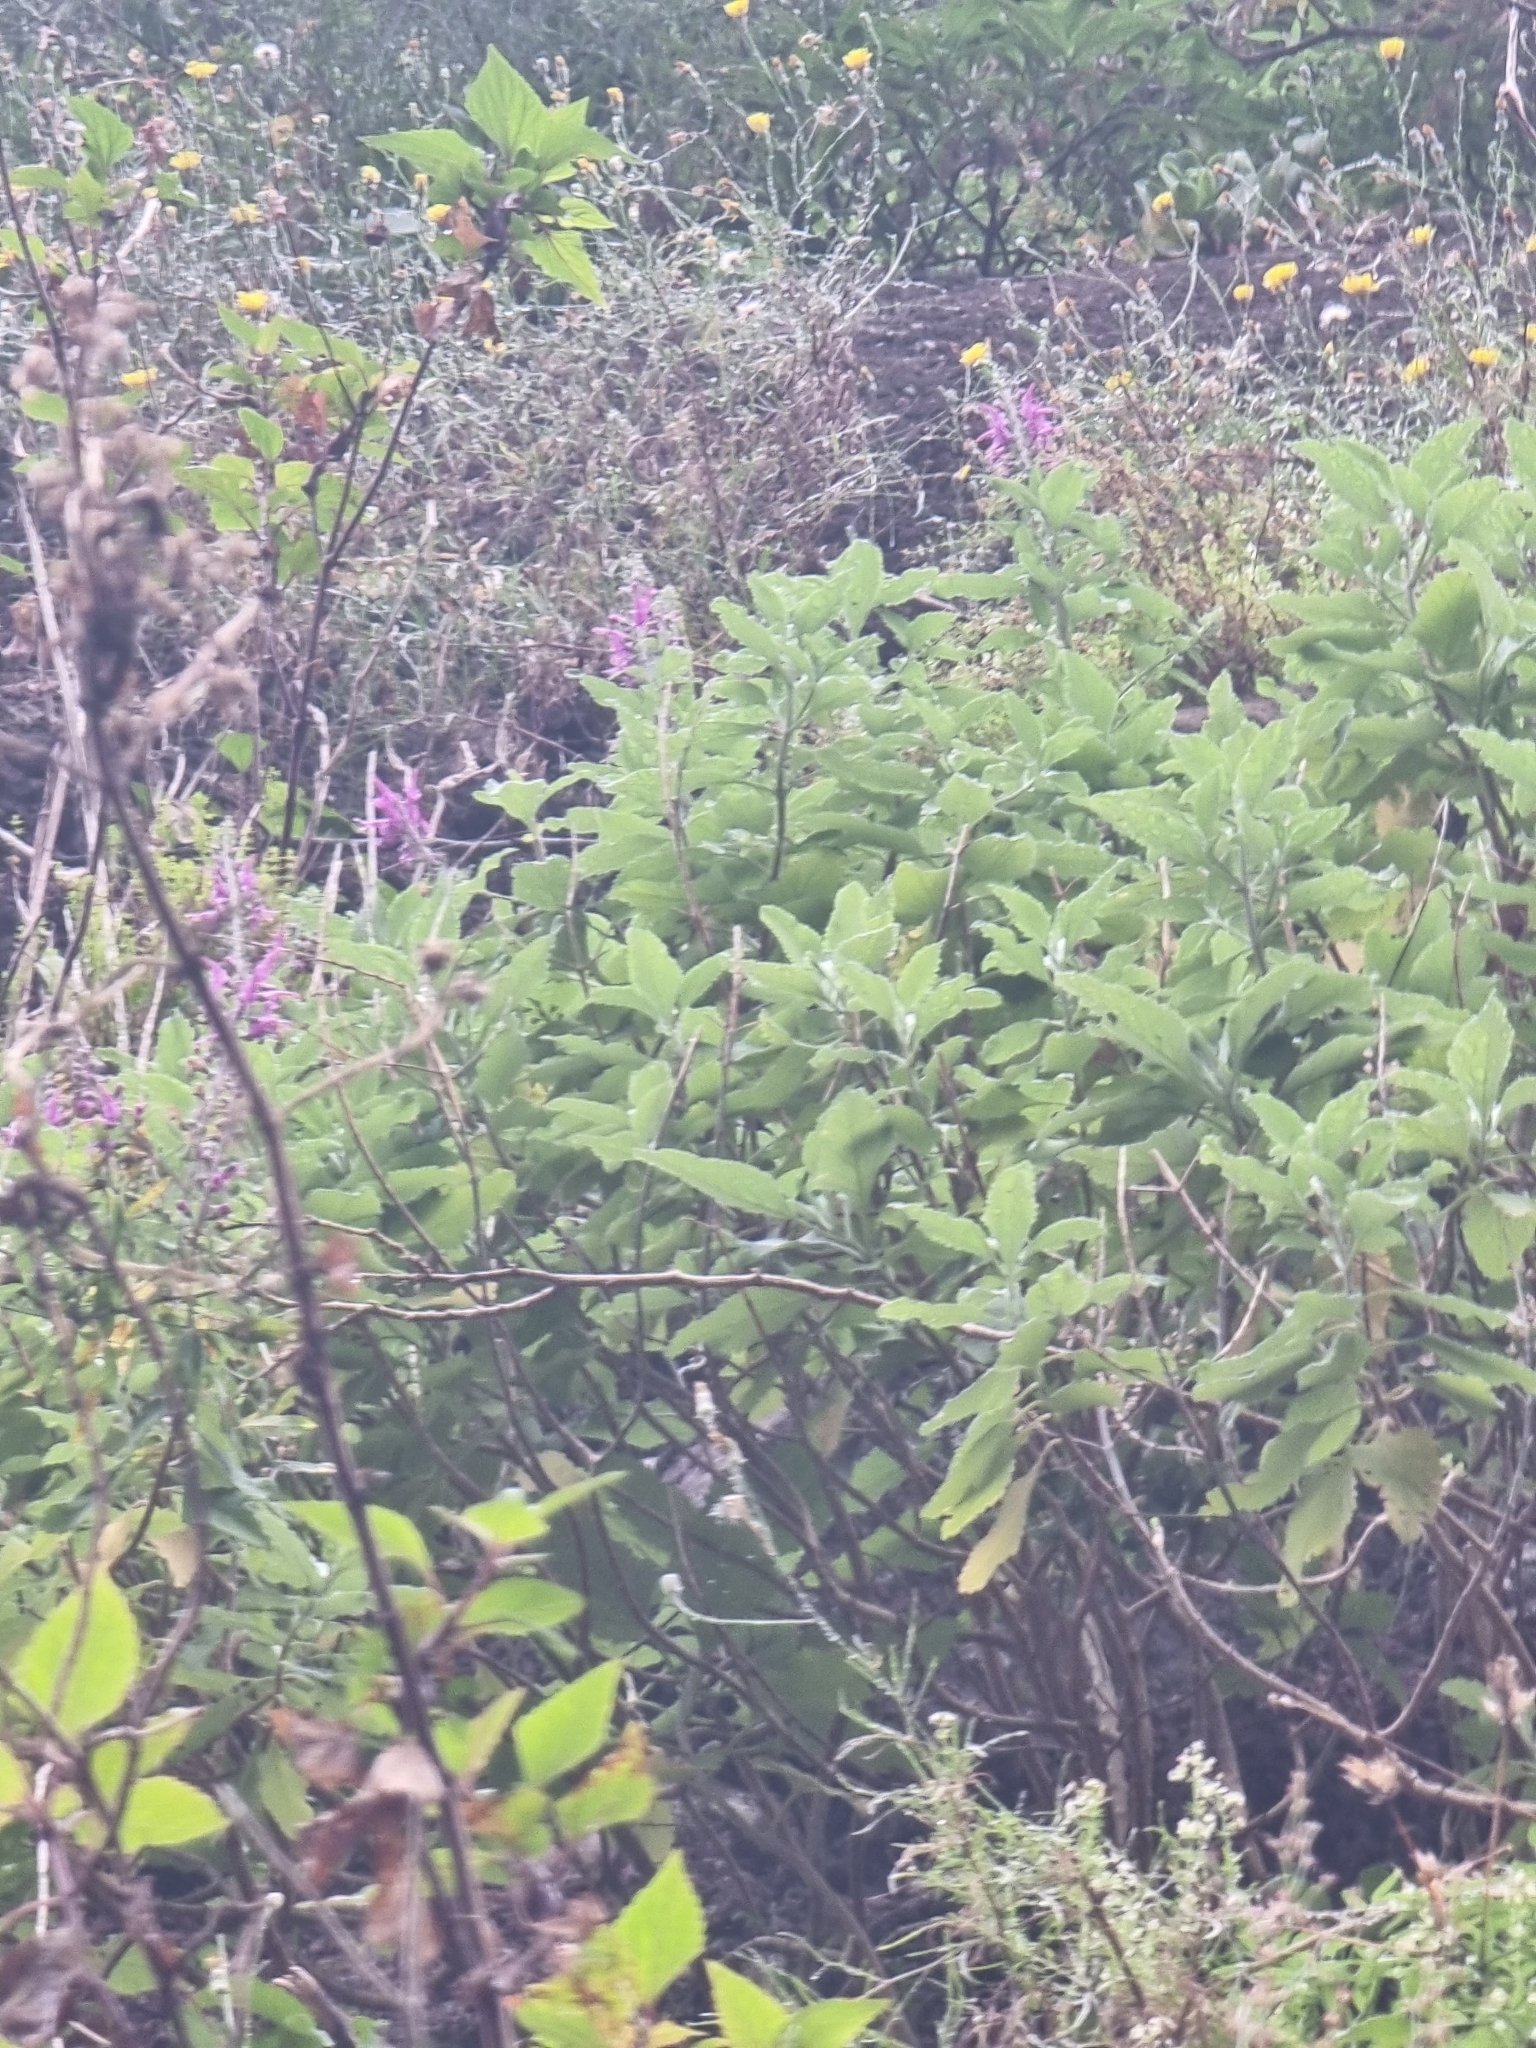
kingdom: Plantae
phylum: Tracheophyta
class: Magnoliopsida
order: Lamiales
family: Lamiaceae
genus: Teucrium
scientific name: Teucrium betonicum
